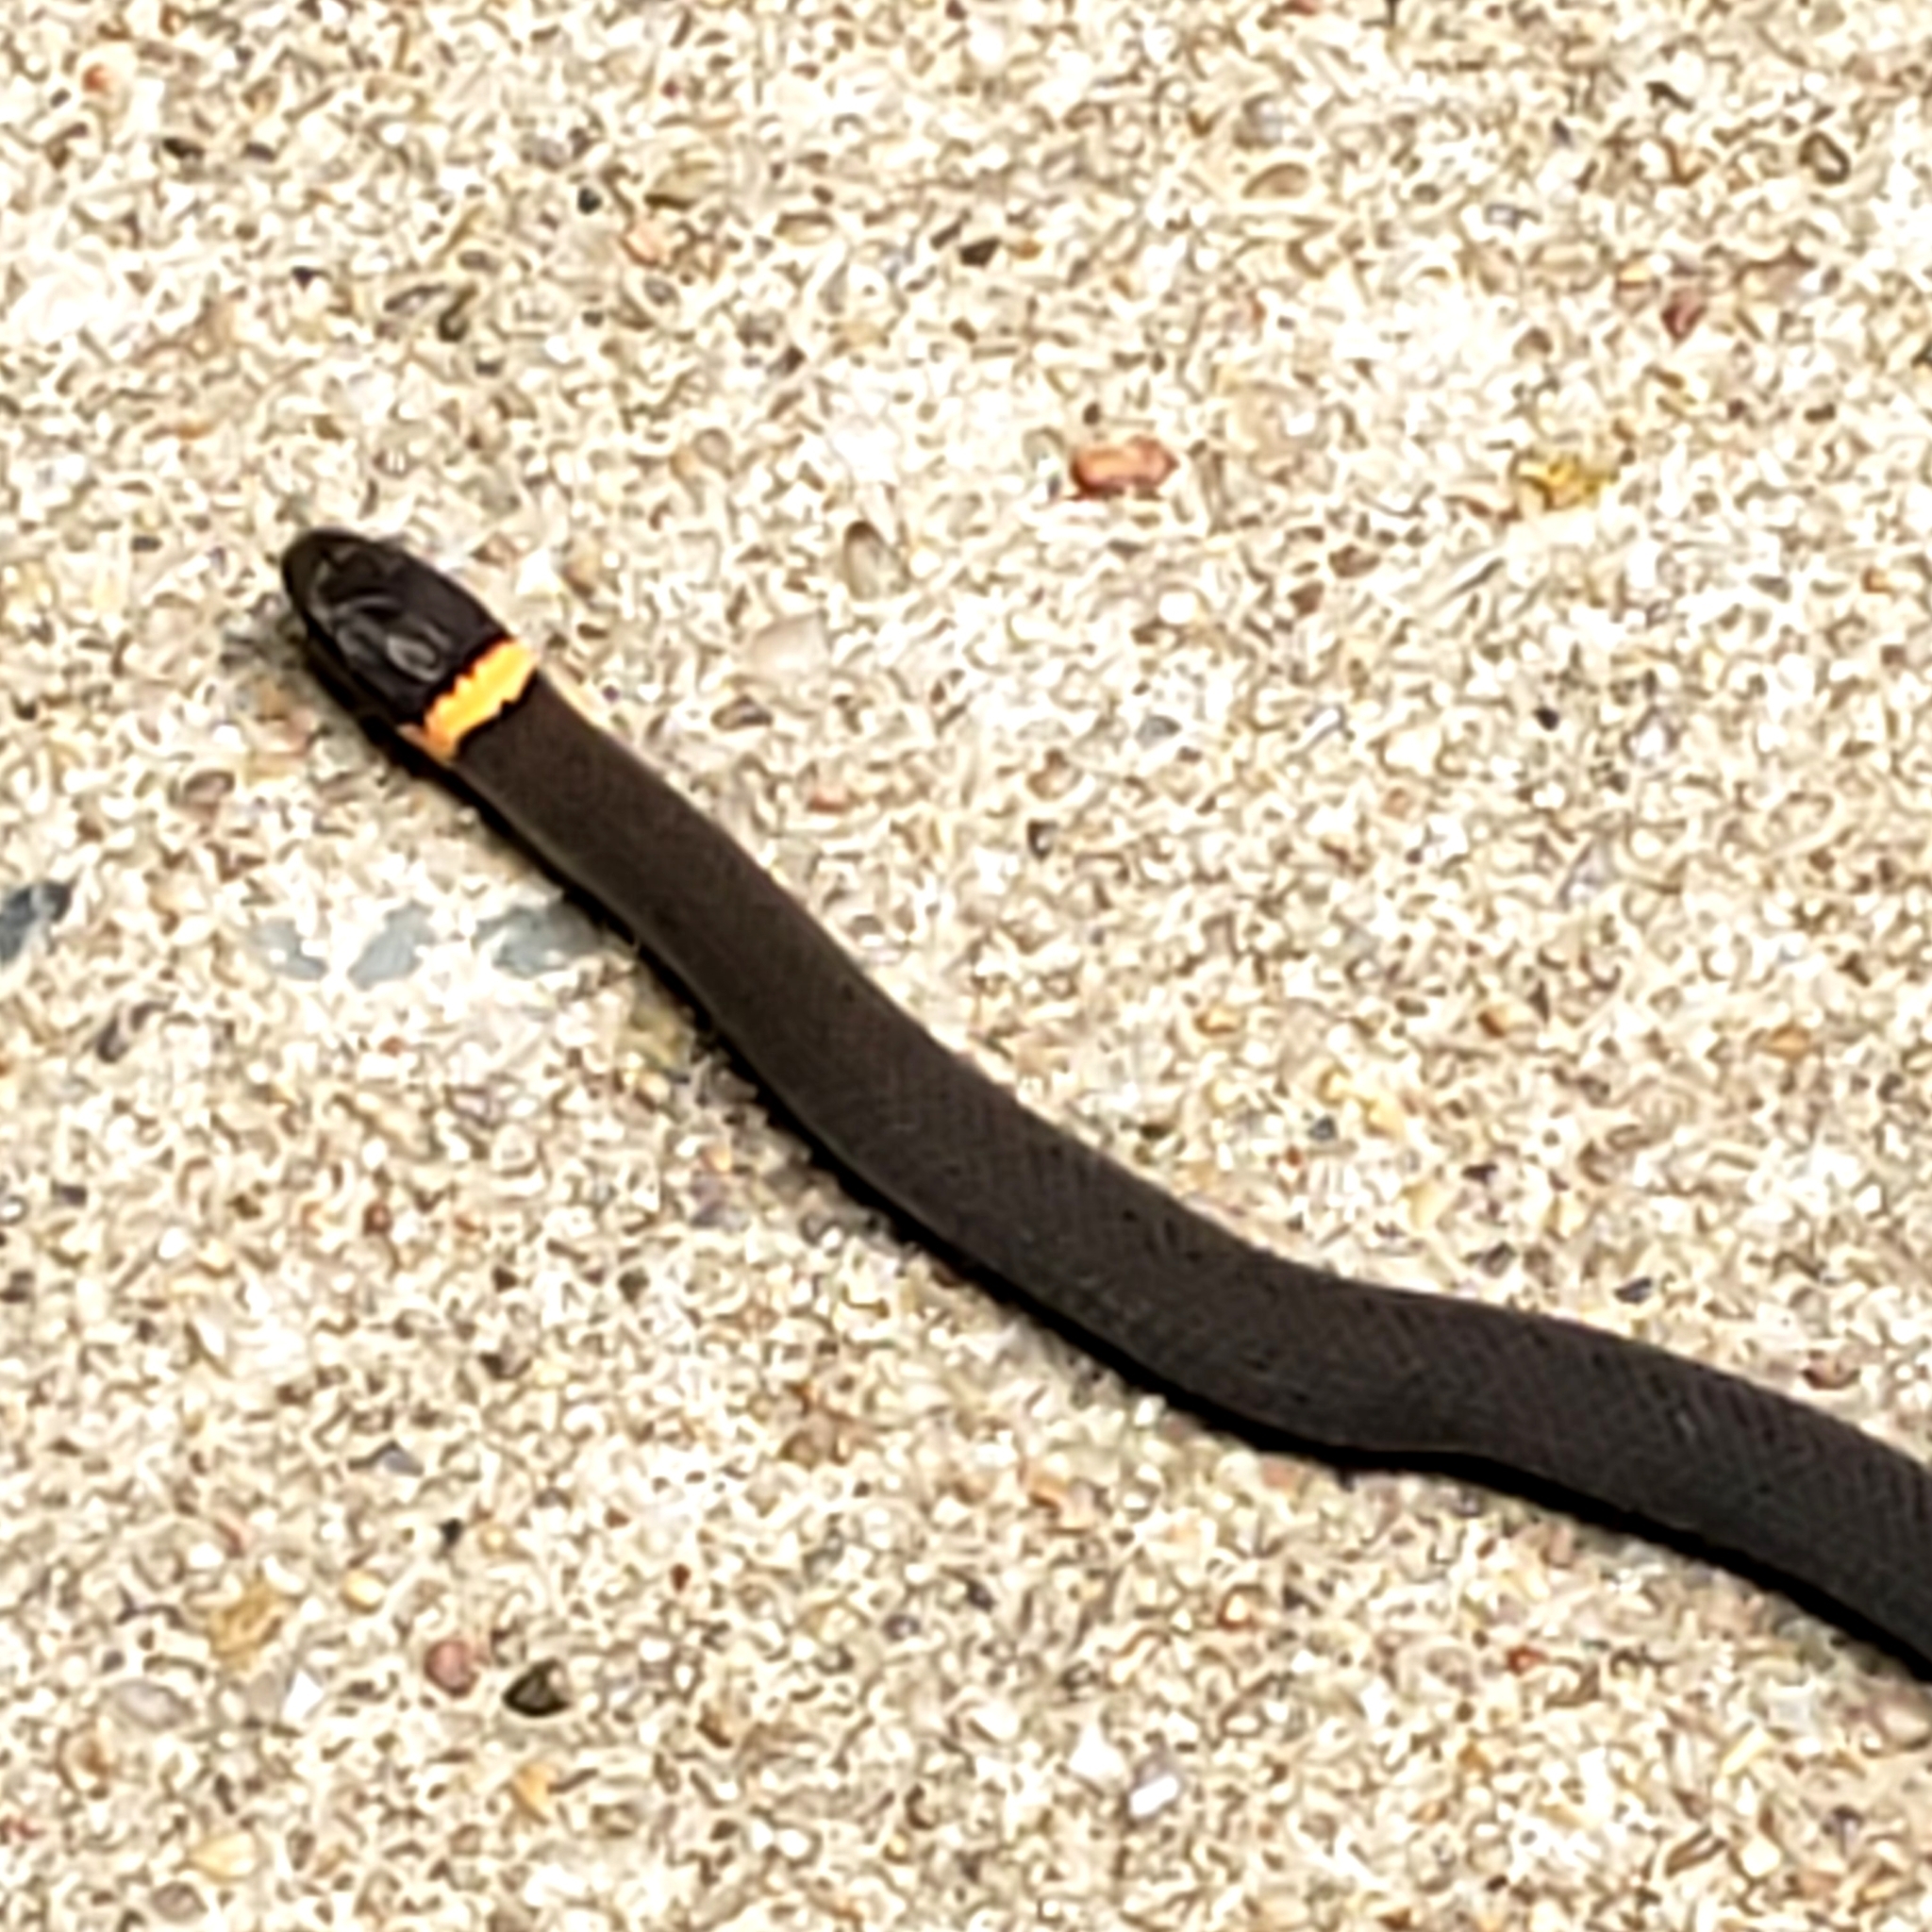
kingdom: Animalia
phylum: Chordata
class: Squamata
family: Colubridae
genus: Diadophis
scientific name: Diadophis punctatus
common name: Ringneck snake
